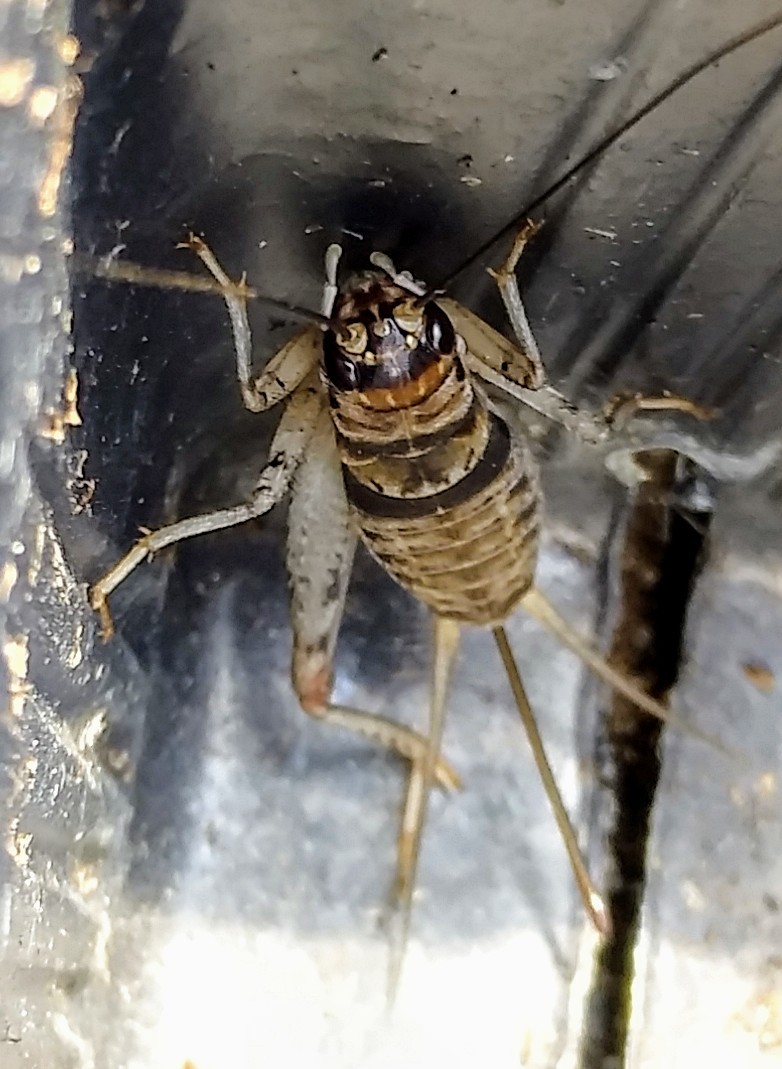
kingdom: Animalia
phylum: Arthropoda
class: Insecta
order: Orthoptera
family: Gryllidae
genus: Gryllodes
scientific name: Gryllodes sigillatus
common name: Tropical house cricket
